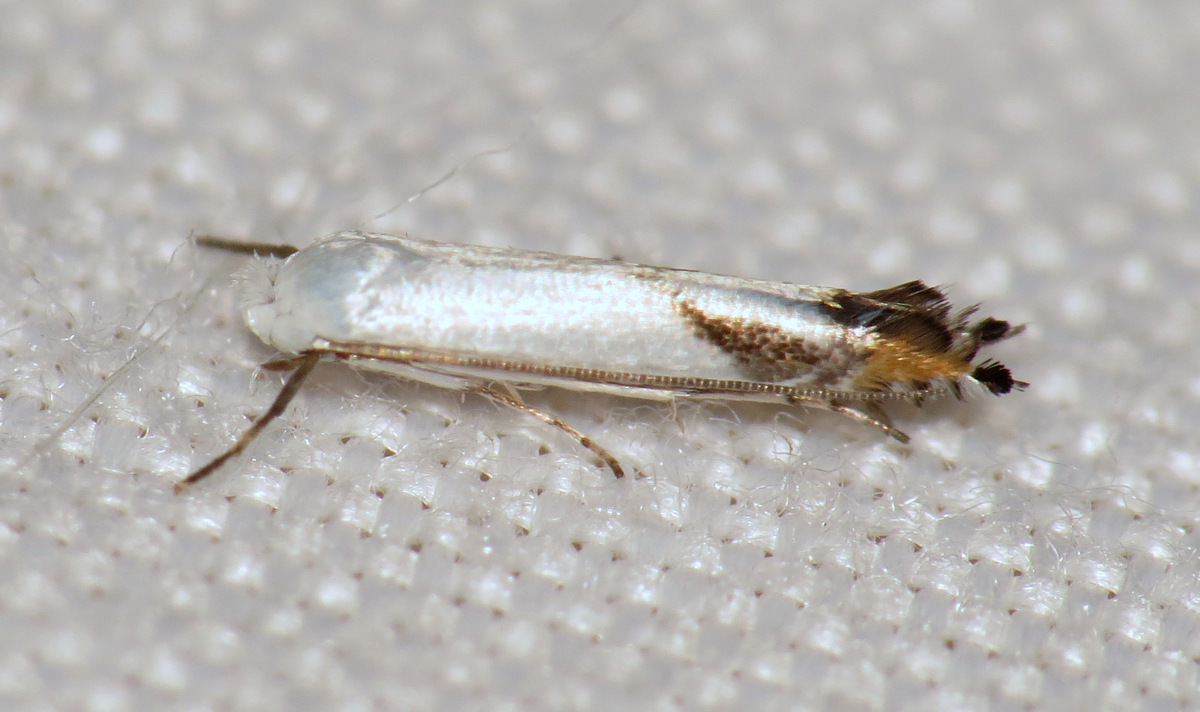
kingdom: Animalia
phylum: Arthropoda
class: Insecta
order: Lepidoptera
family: Lyonetiidae
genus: Lyonetia
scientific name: Lyonetia latistrigella
